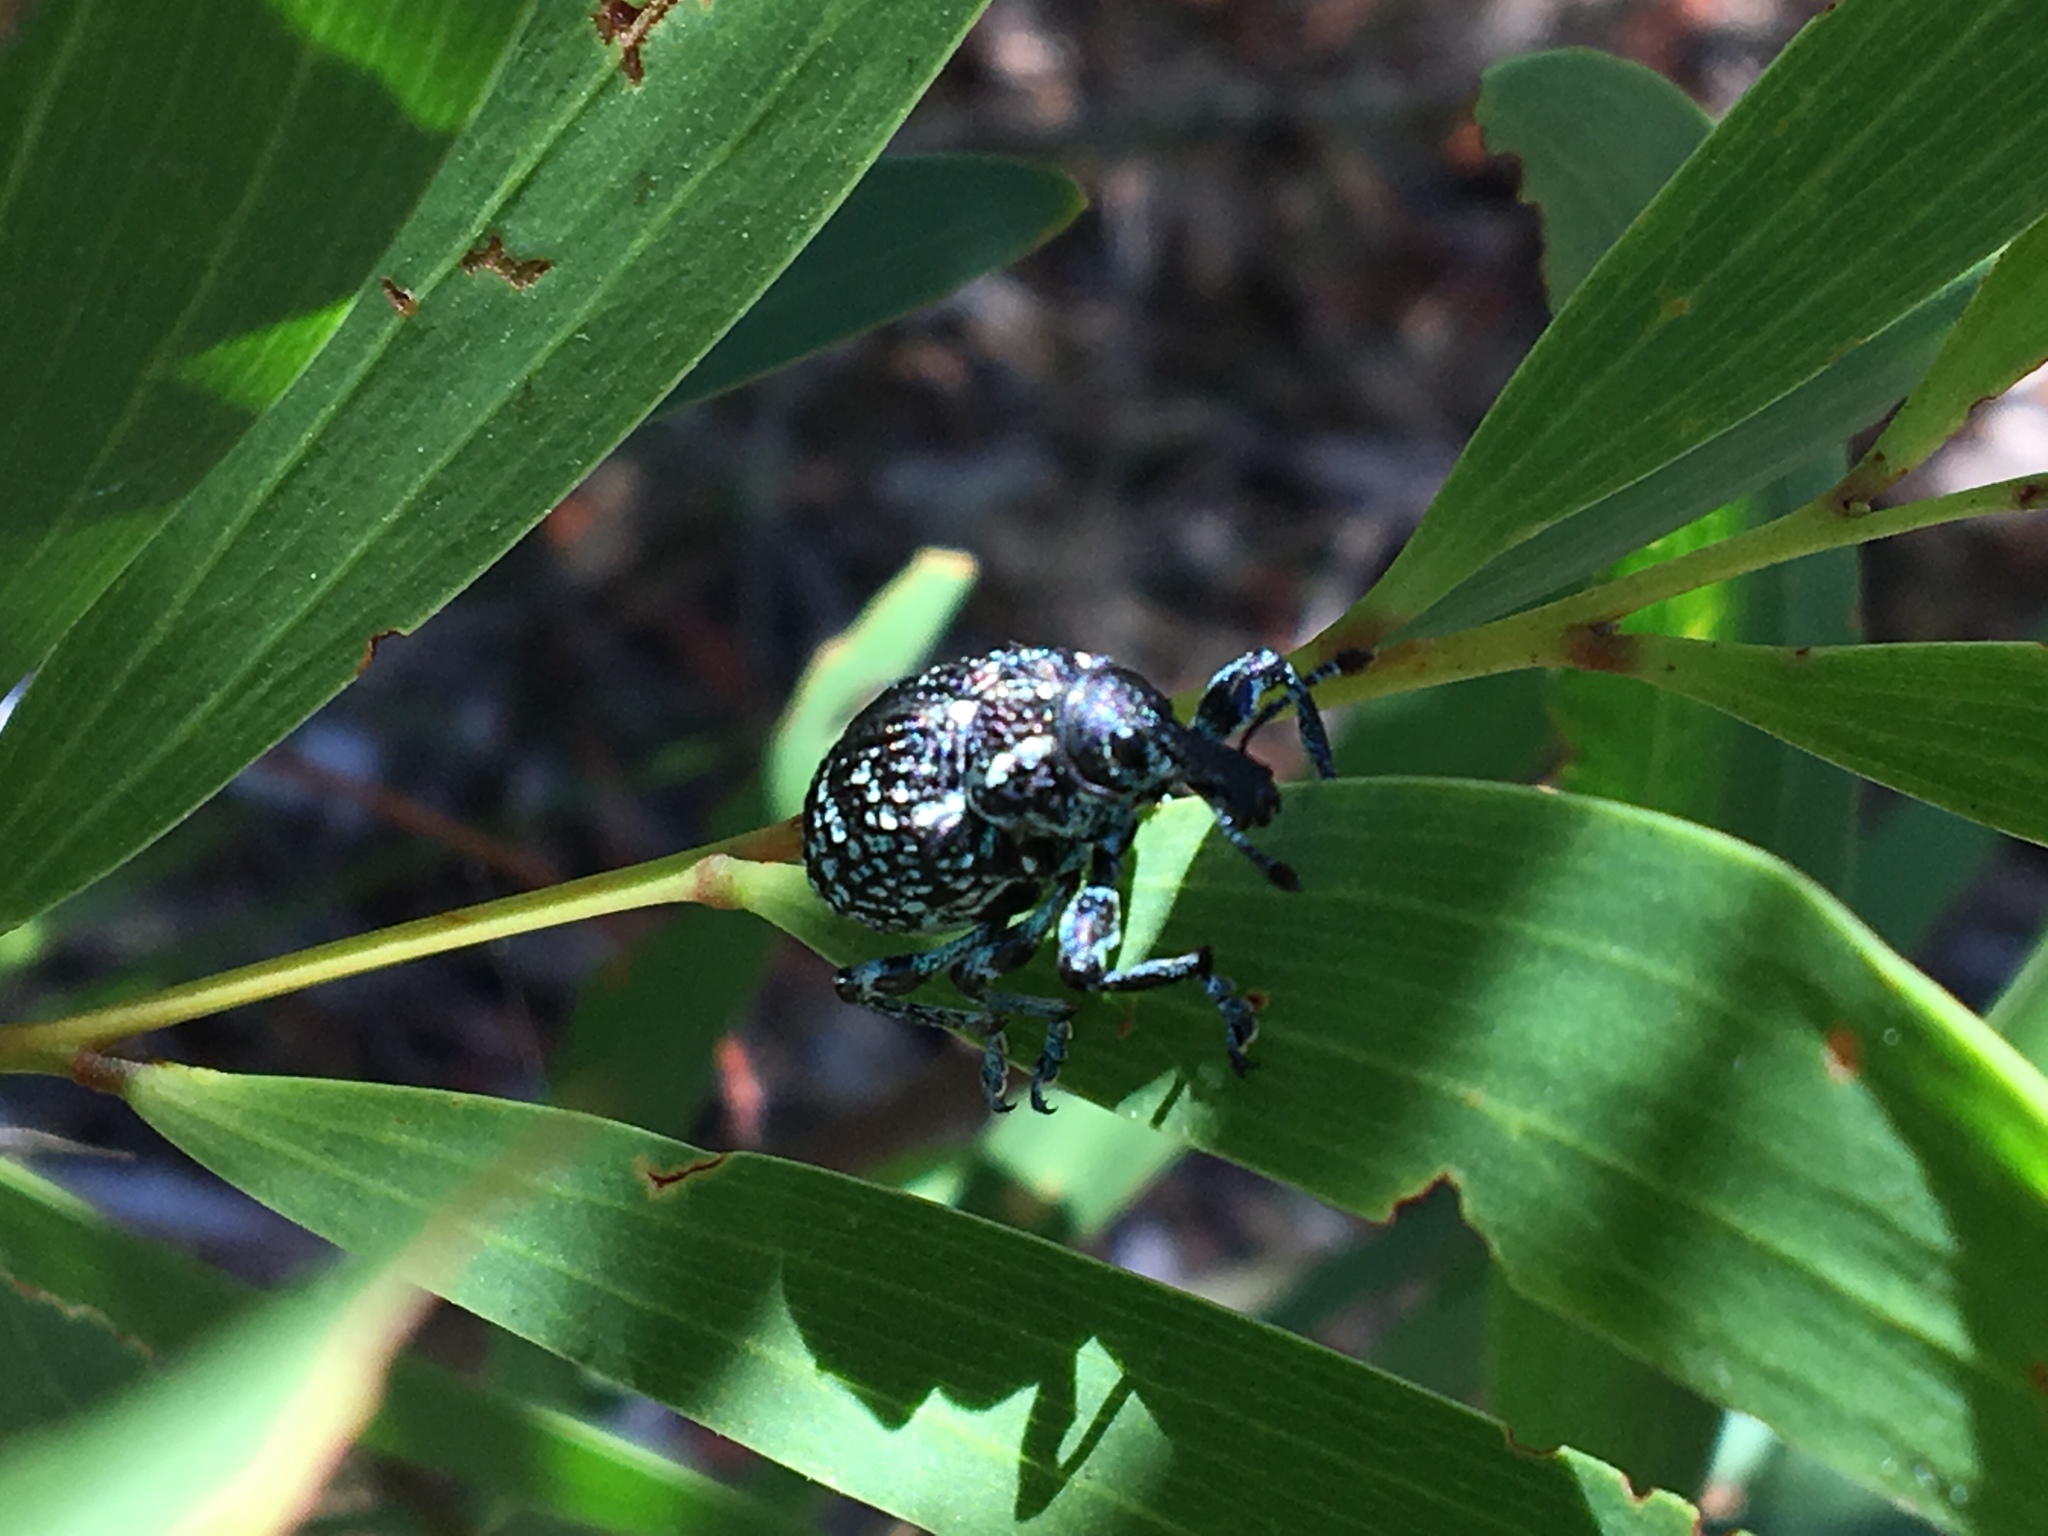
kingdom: Animalia
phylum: Arthropoda
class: Insecta
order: Coleoptera
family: Curculionidae
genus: Chrysolopus
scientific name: Chrysolopus spectabilis
